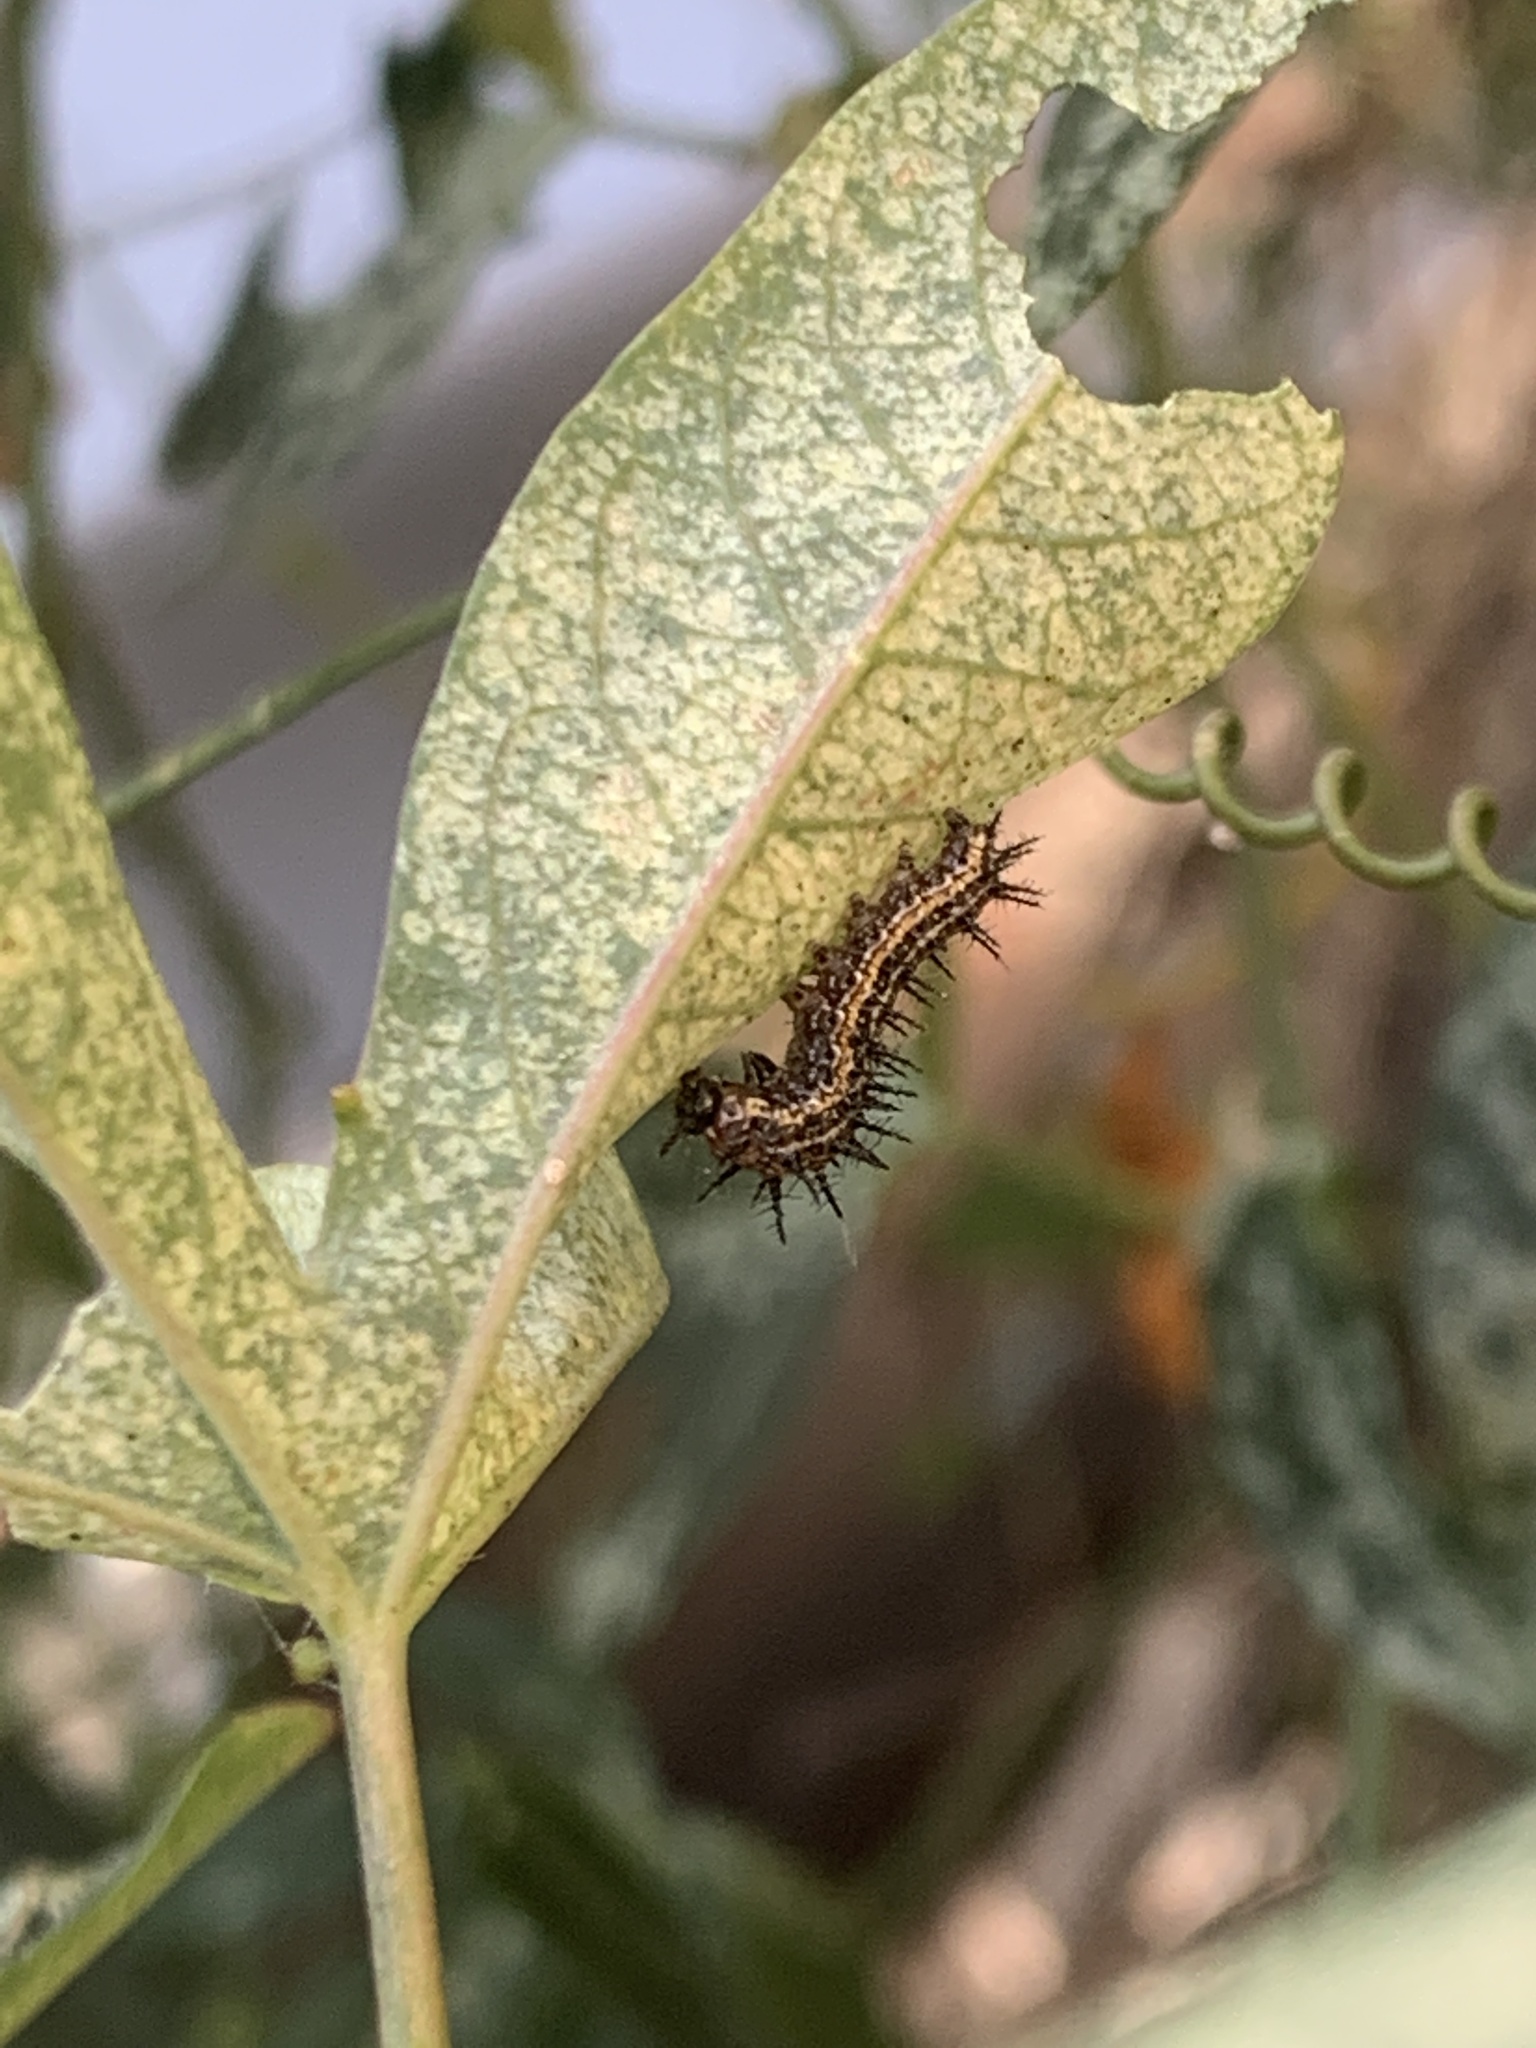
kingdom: Animalia
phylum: Arthropoda
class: Insecta
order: Lepidoptera
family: Nymphalidae
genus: Dione
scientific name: Dione vanillae
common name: Gulf fritillary
